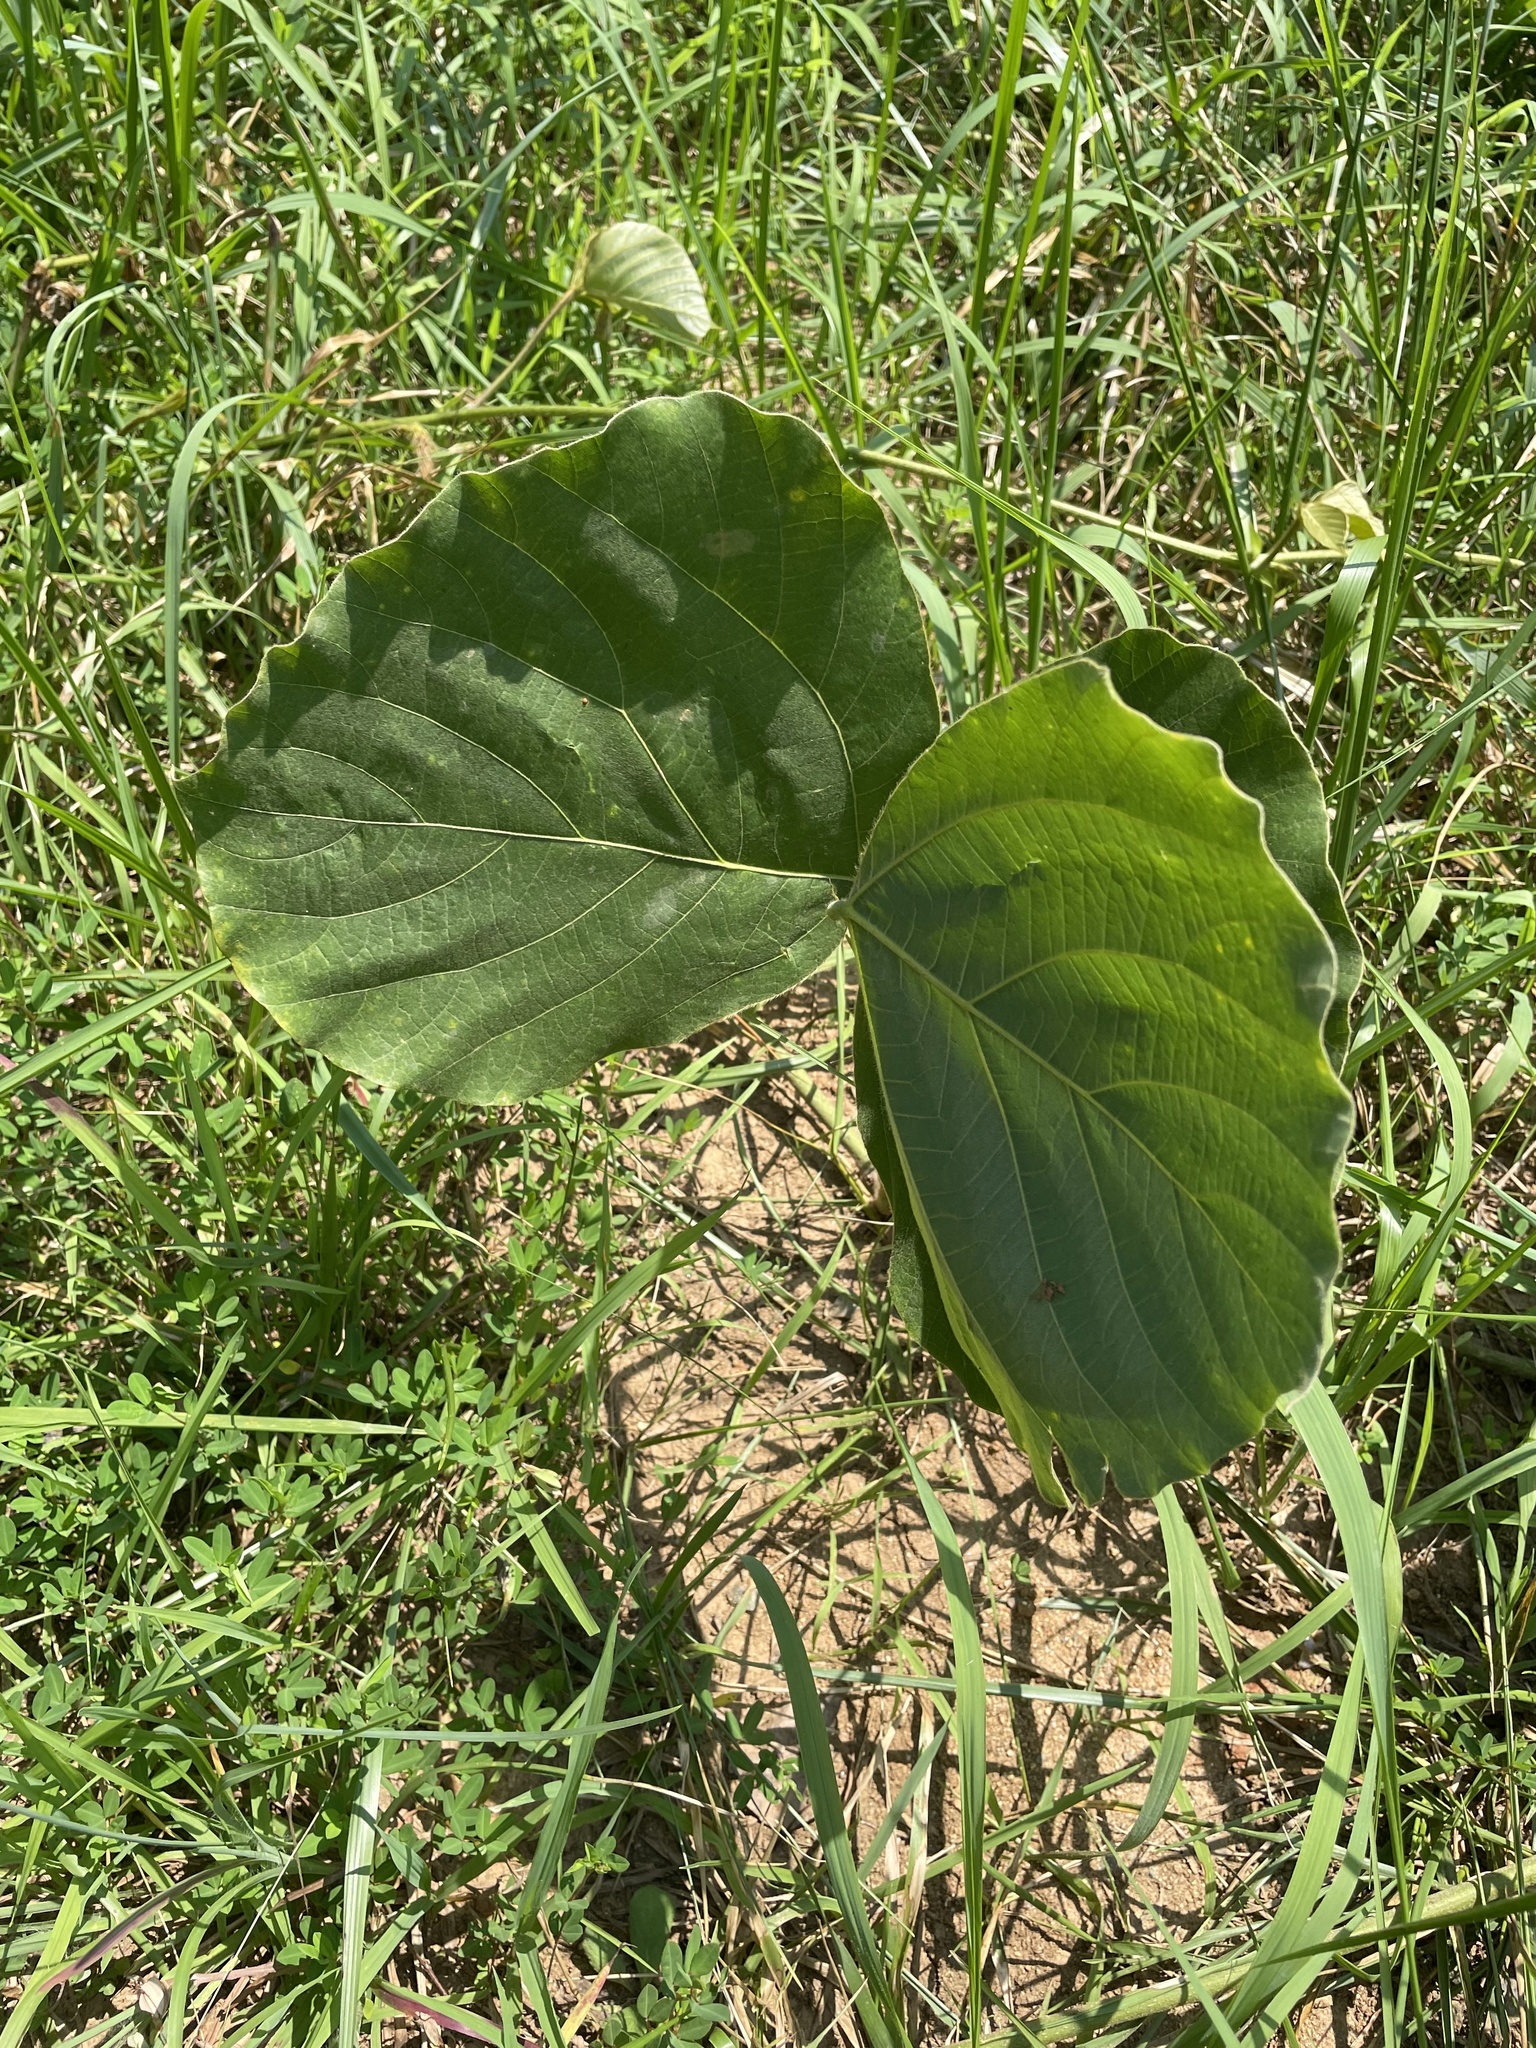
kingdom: Plantae
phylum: Tracheophyta
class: Magnoliopsida
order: Fabales
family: Fabaceae
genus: Pueraria
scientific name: Pueraria montana
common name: Kudzu
